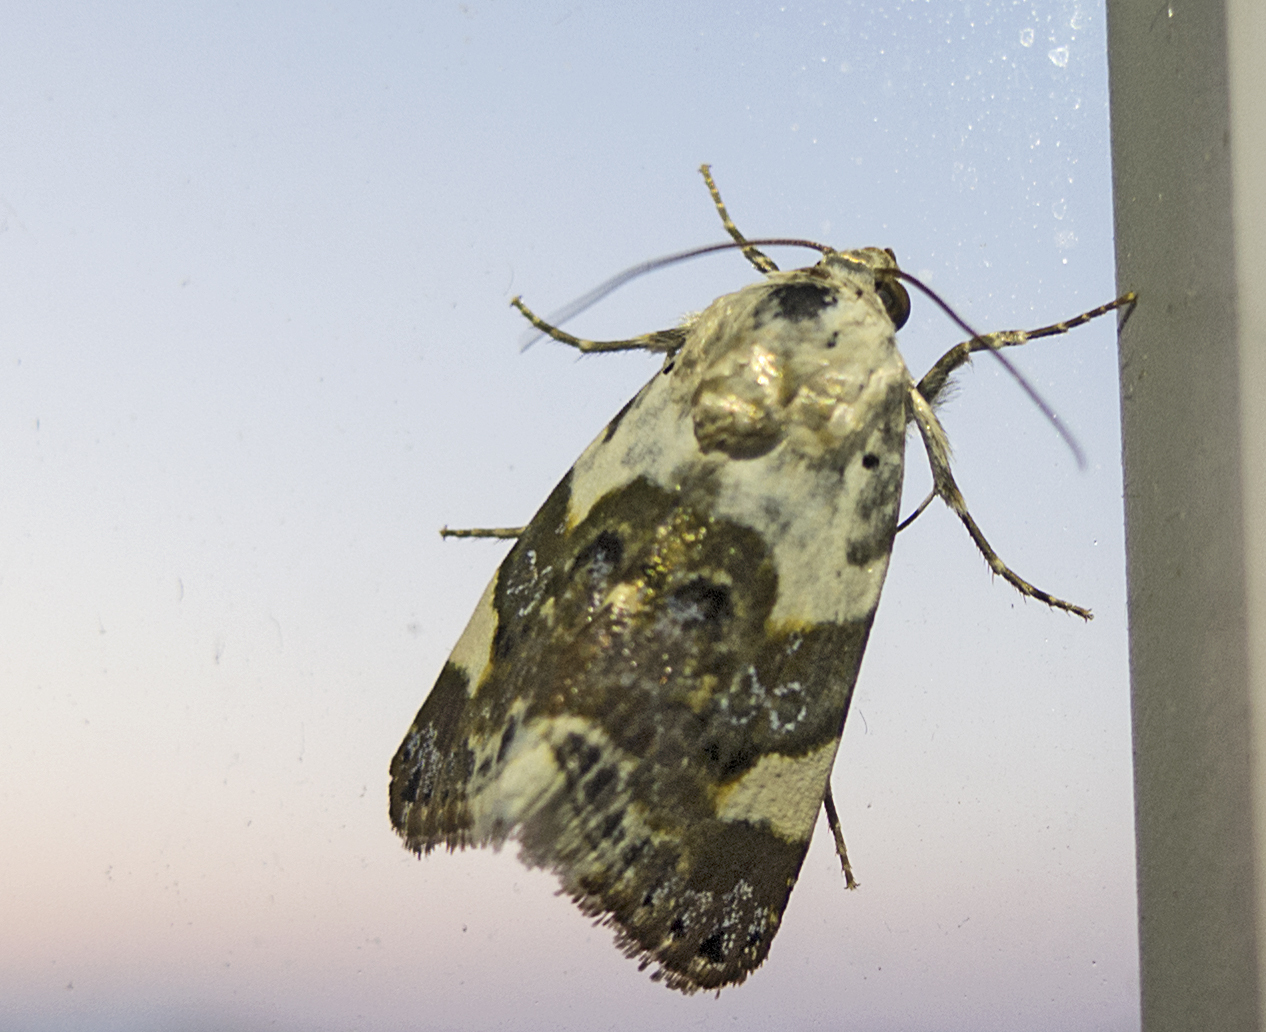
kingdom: Animalia
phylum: Arthropoda
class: Insecta
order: Lepidoptera
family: Noctuidae
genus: Acontia
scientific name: Acontia lucida
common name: Pale shoulder
